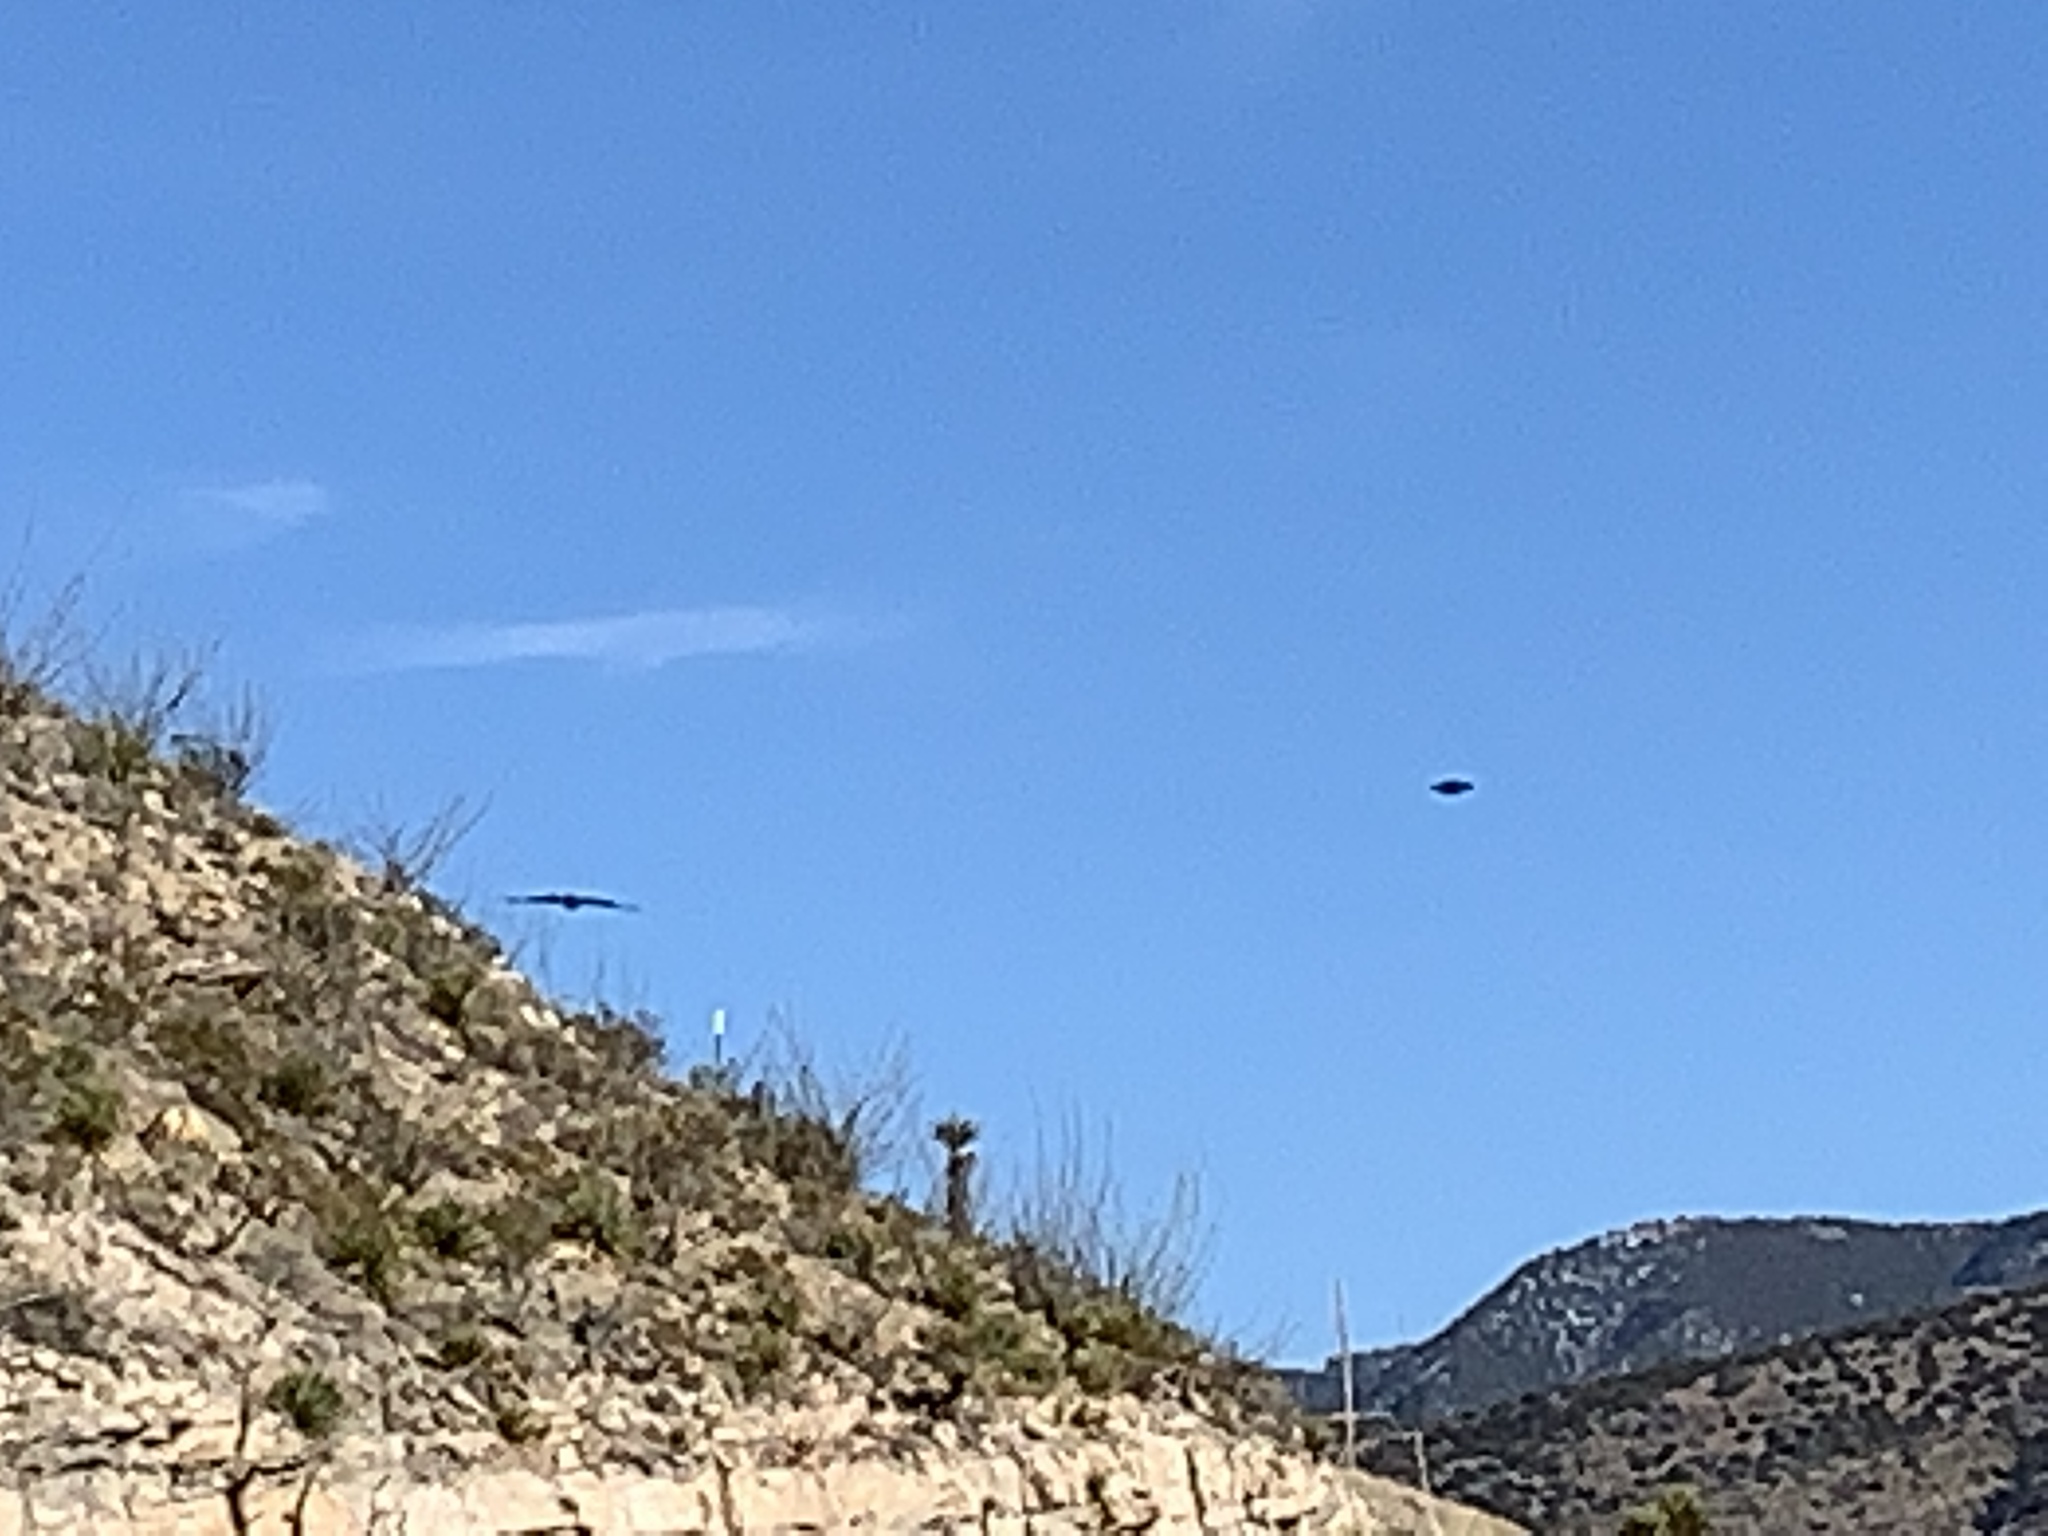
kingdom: Animalia
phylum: Chordata
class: Aves
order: Passeriformes
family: Corvidae
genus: Corvus
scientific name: Corvus corax
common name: Common raven
